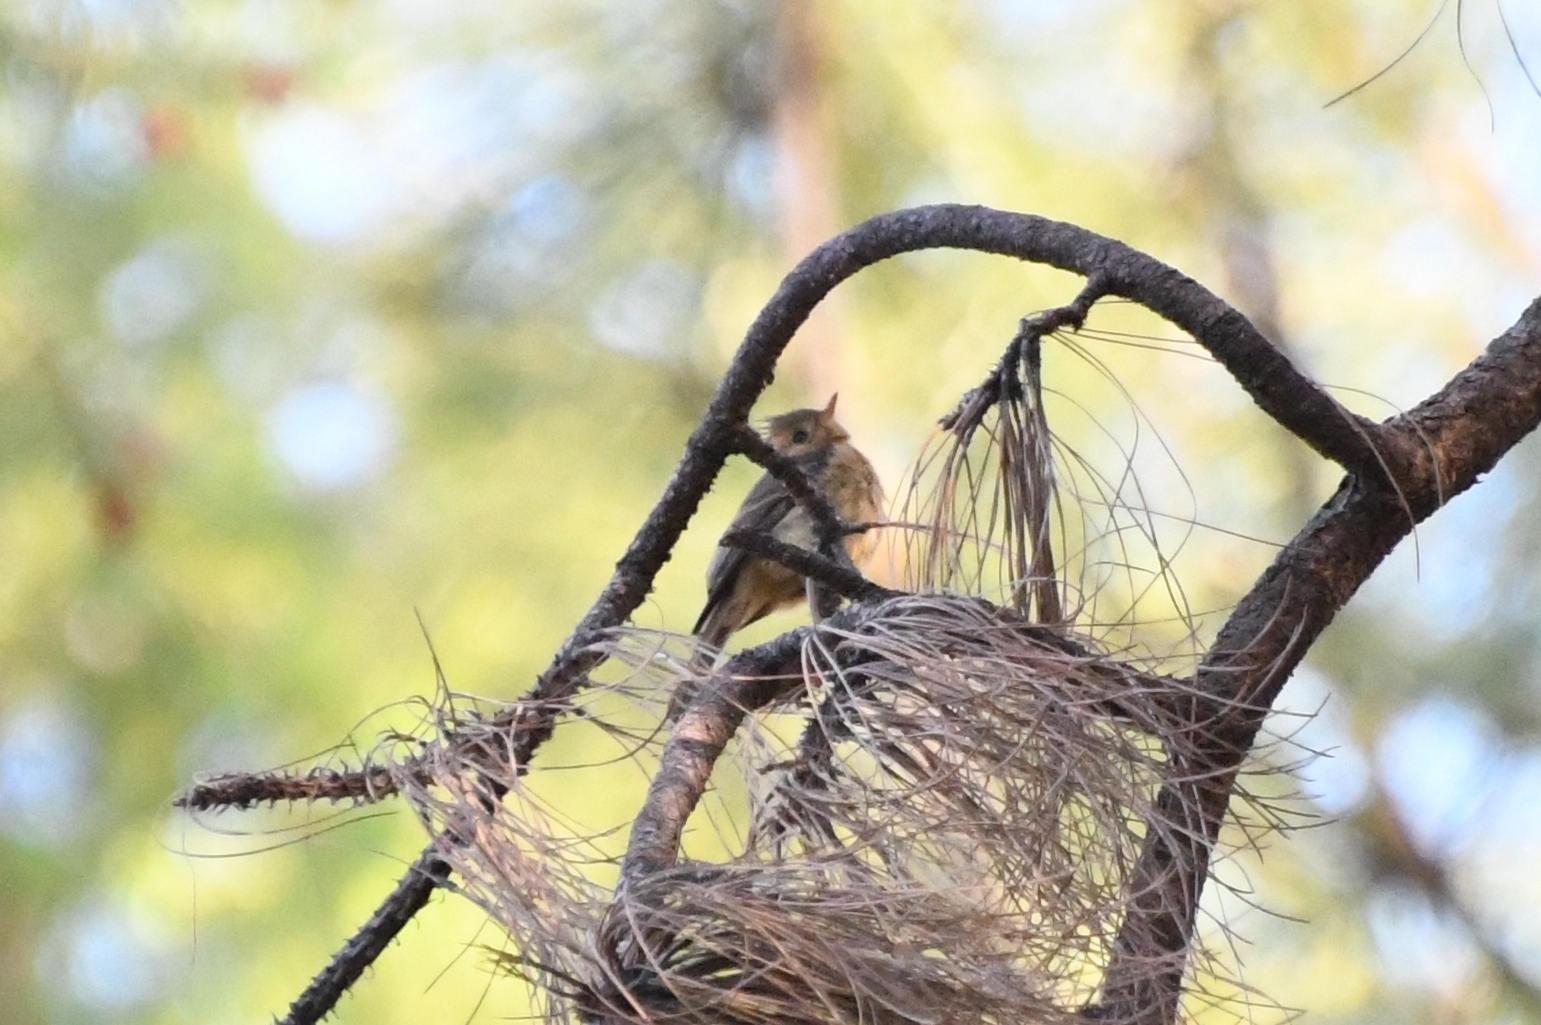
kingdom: Animalia
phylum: Chordata
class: Aves
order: Passeriformes
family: Tyrannidae
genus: Mitrephanes
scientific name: Mitrephanes phaeocercus
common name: Northern tufted flycatcher
